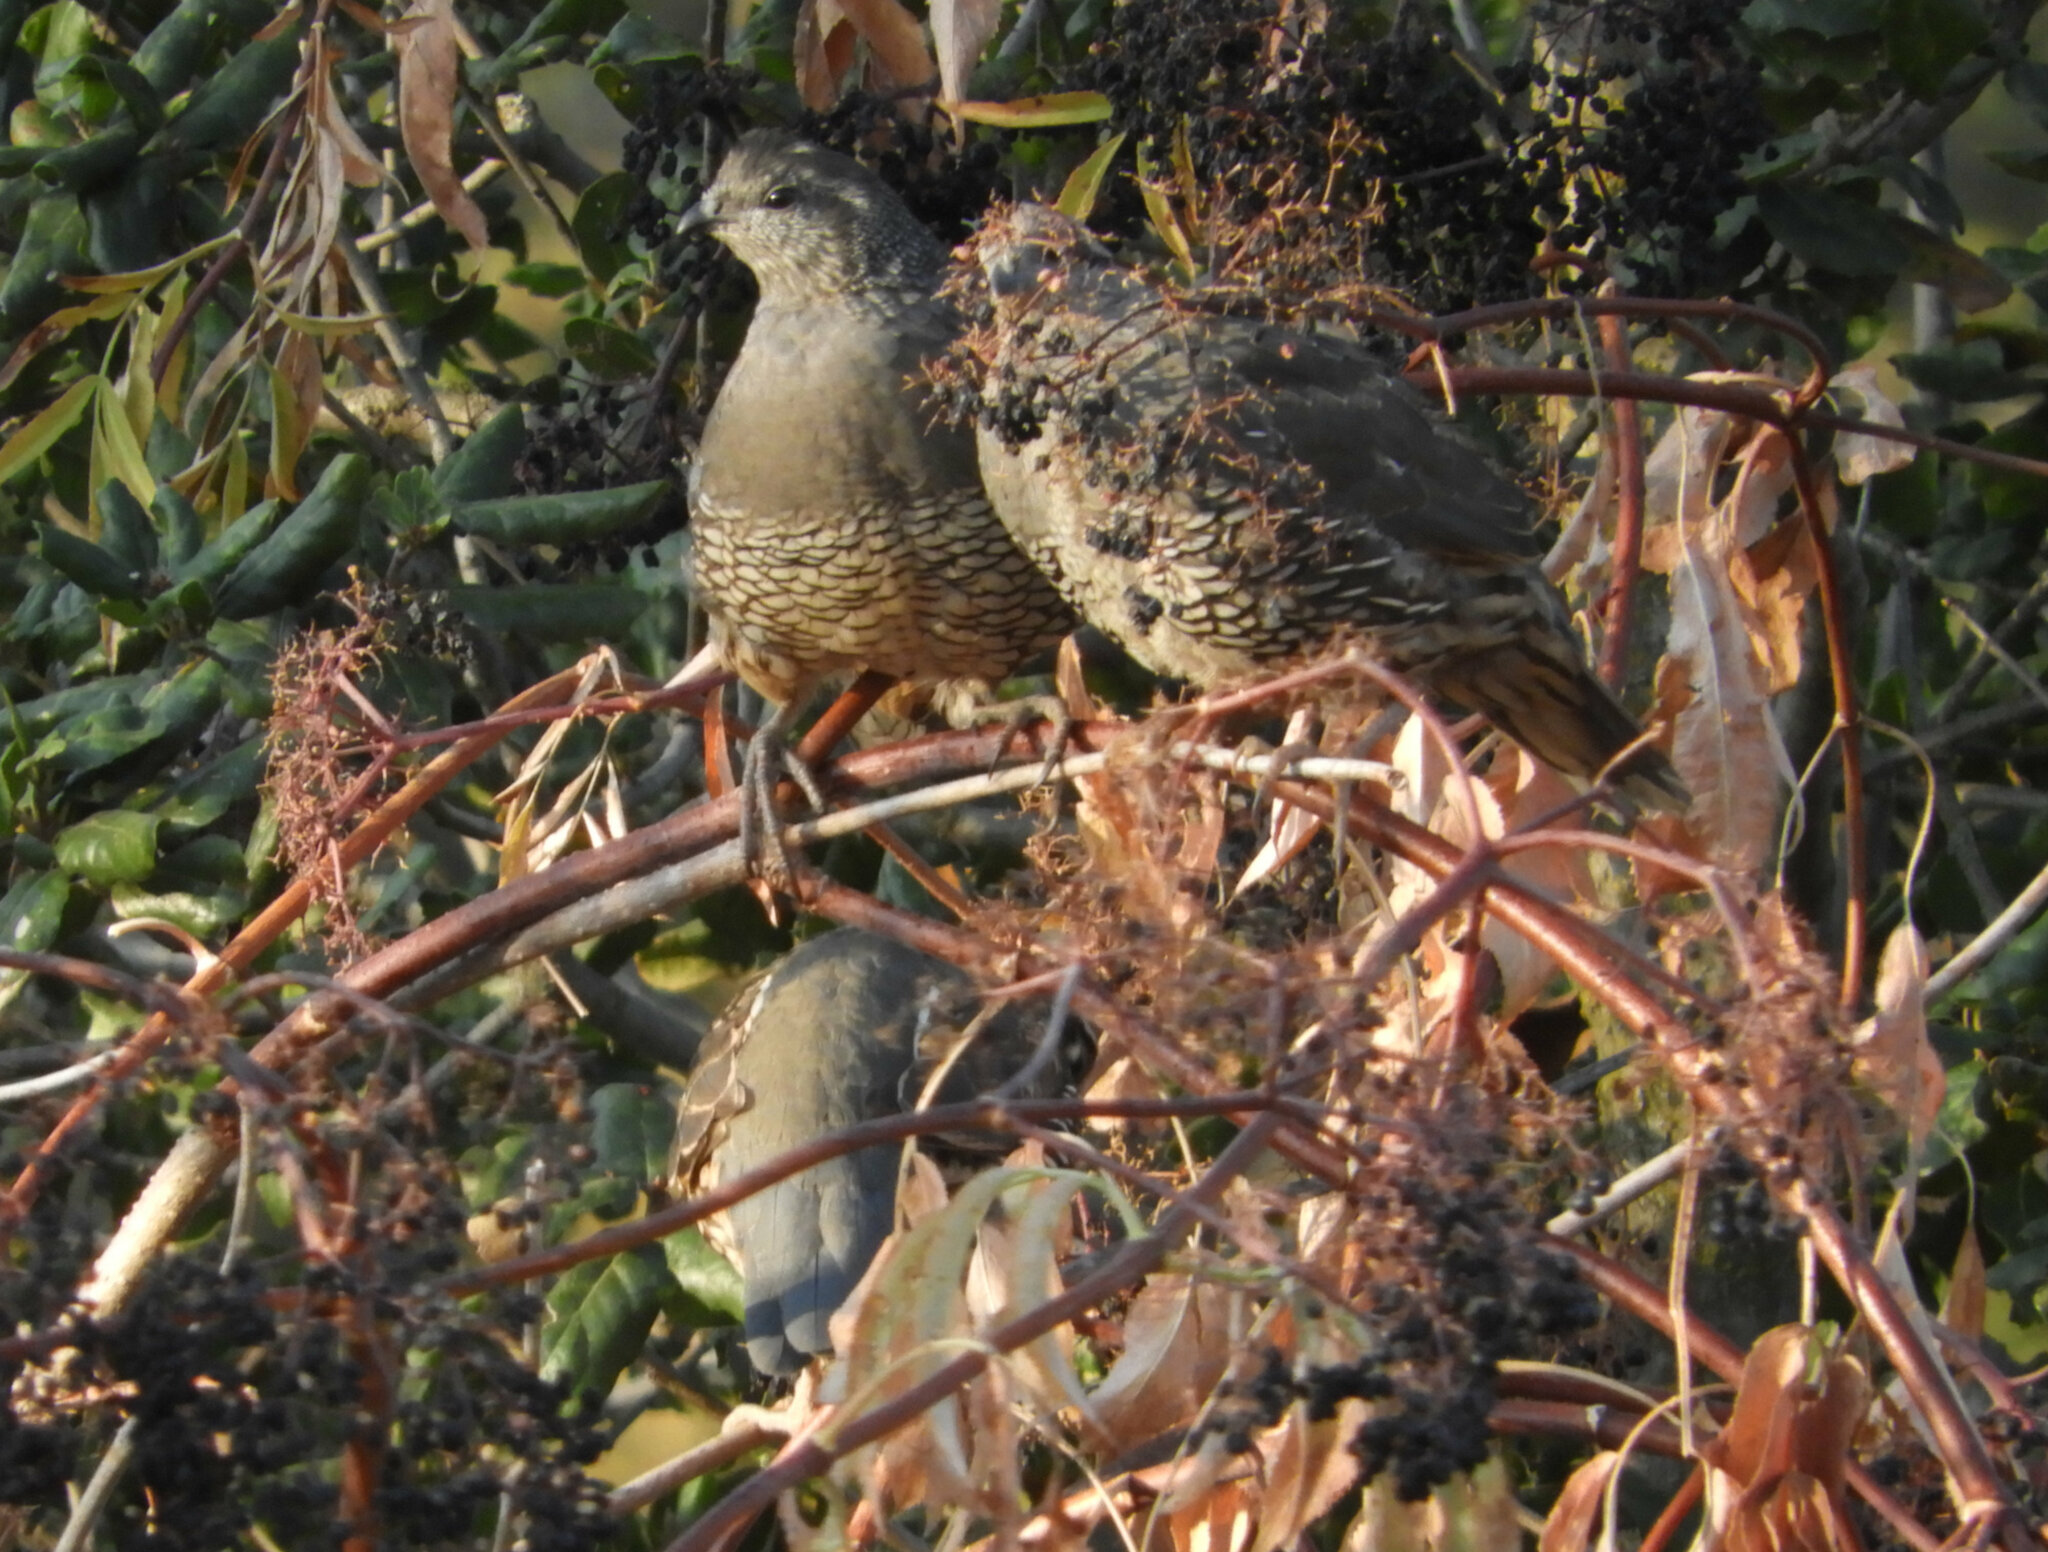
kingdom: Animalia
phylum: Chordata
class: Aves
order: Galliformes
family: Odontophoridae
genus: Callipepla
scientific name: Callipepla californica
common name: California quail
